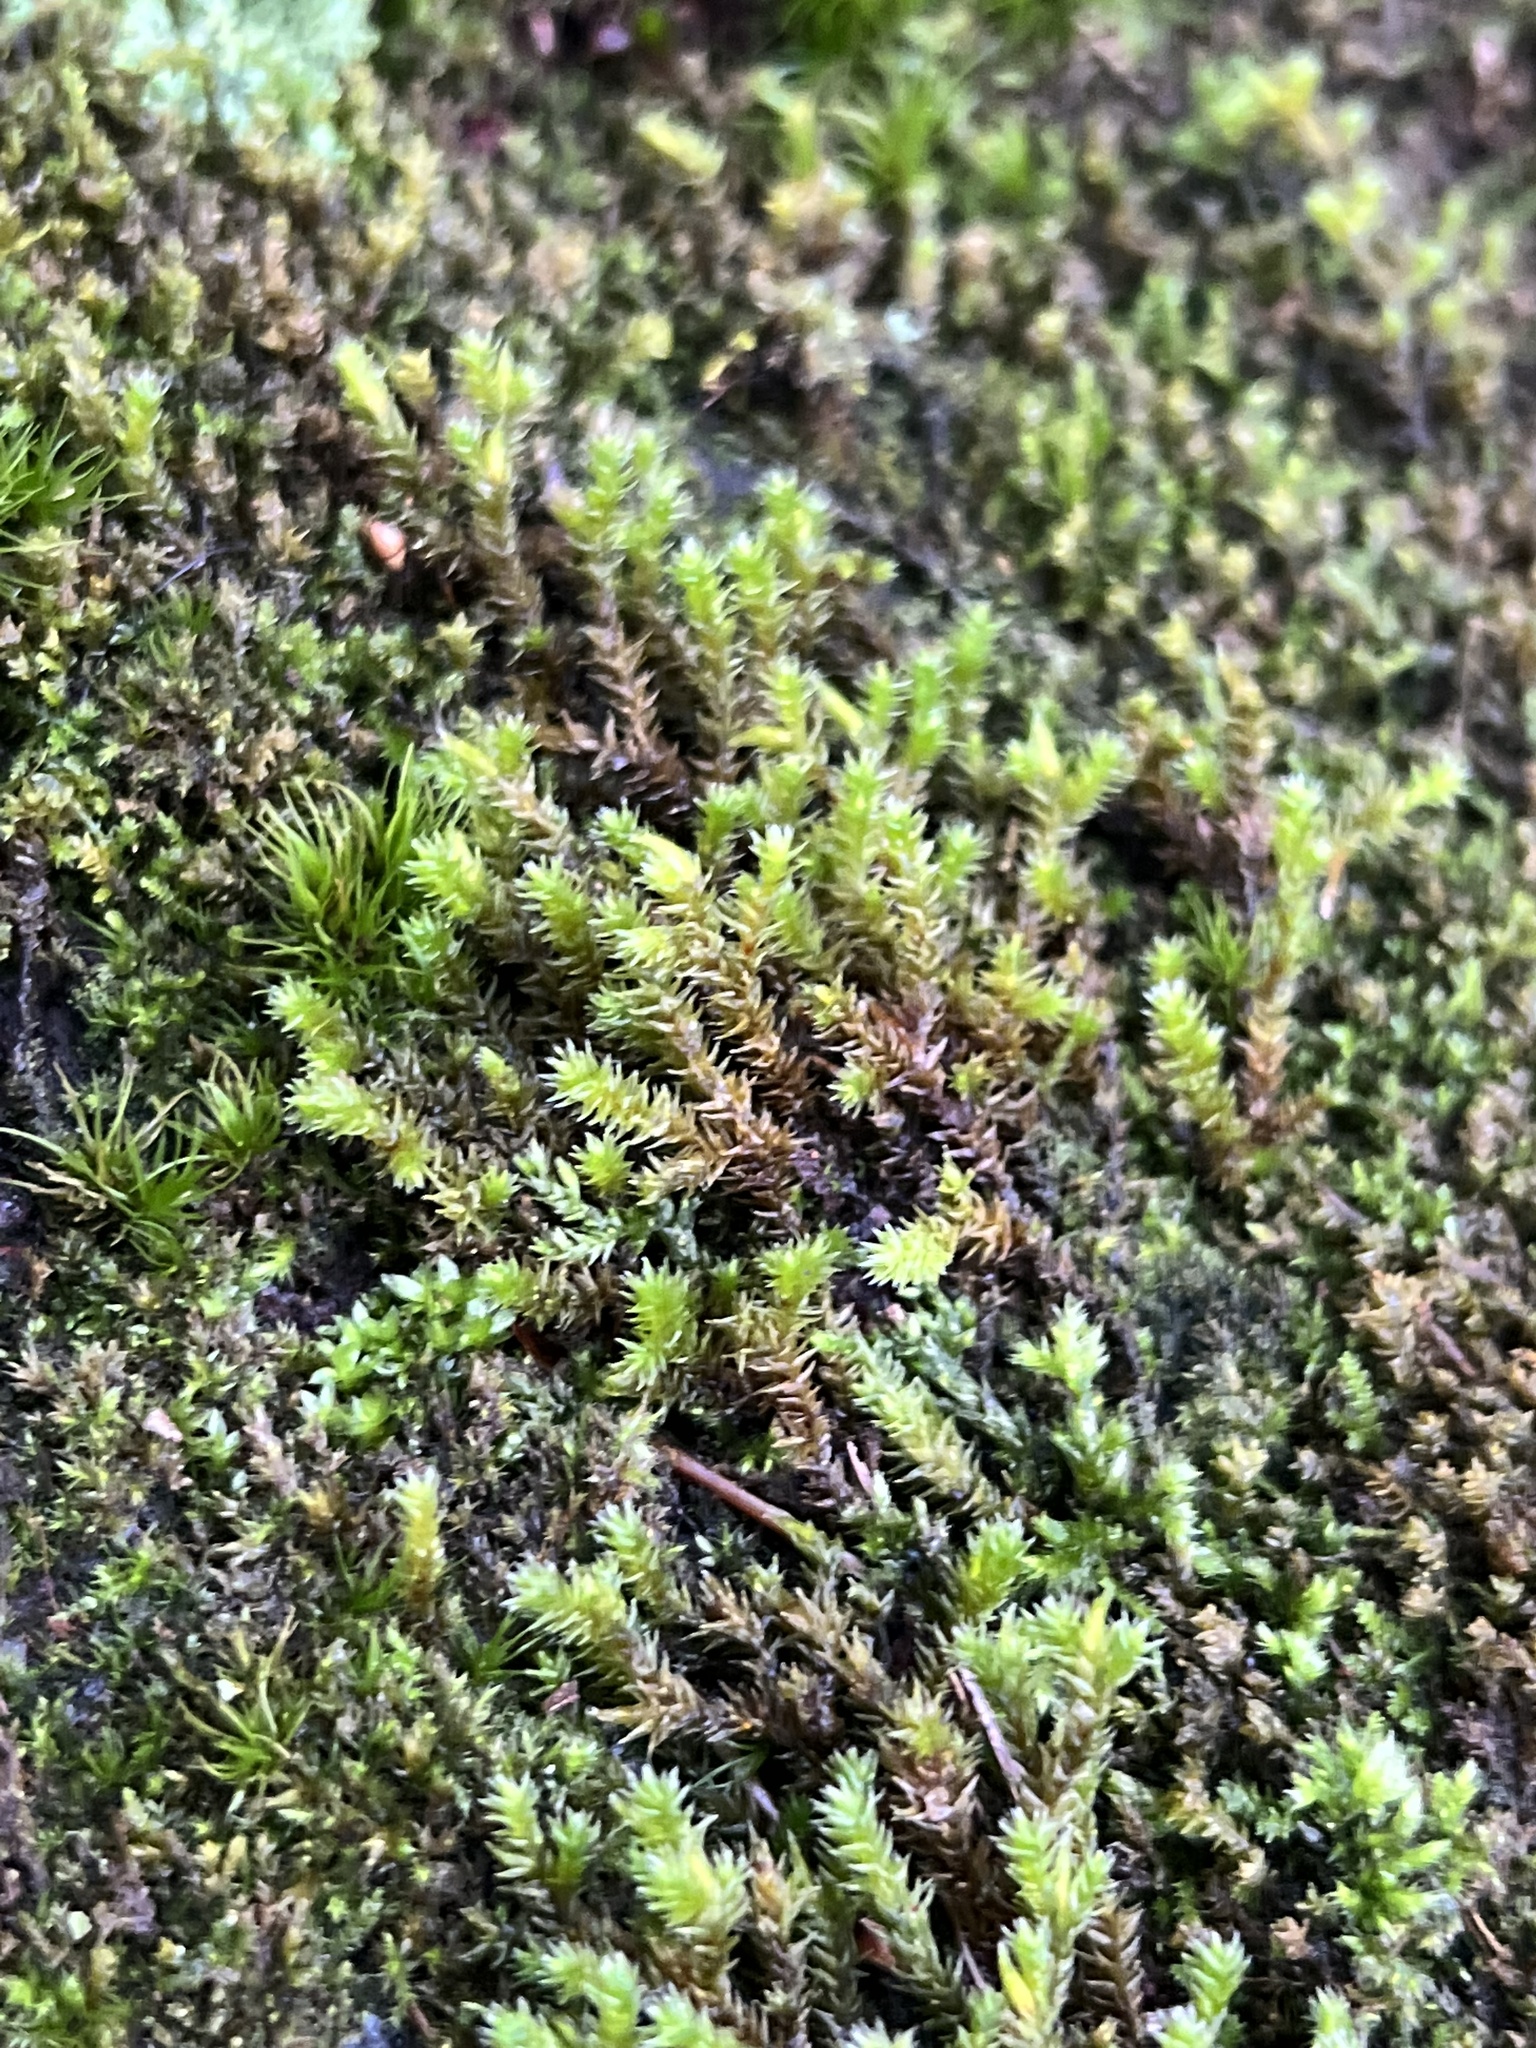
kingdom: Plantae
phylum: Bryophyta
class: Bryopsida
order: Hedwigiales
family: Hedwigiaceae
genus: Hedwigia
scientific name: Hedwigia ciliata
